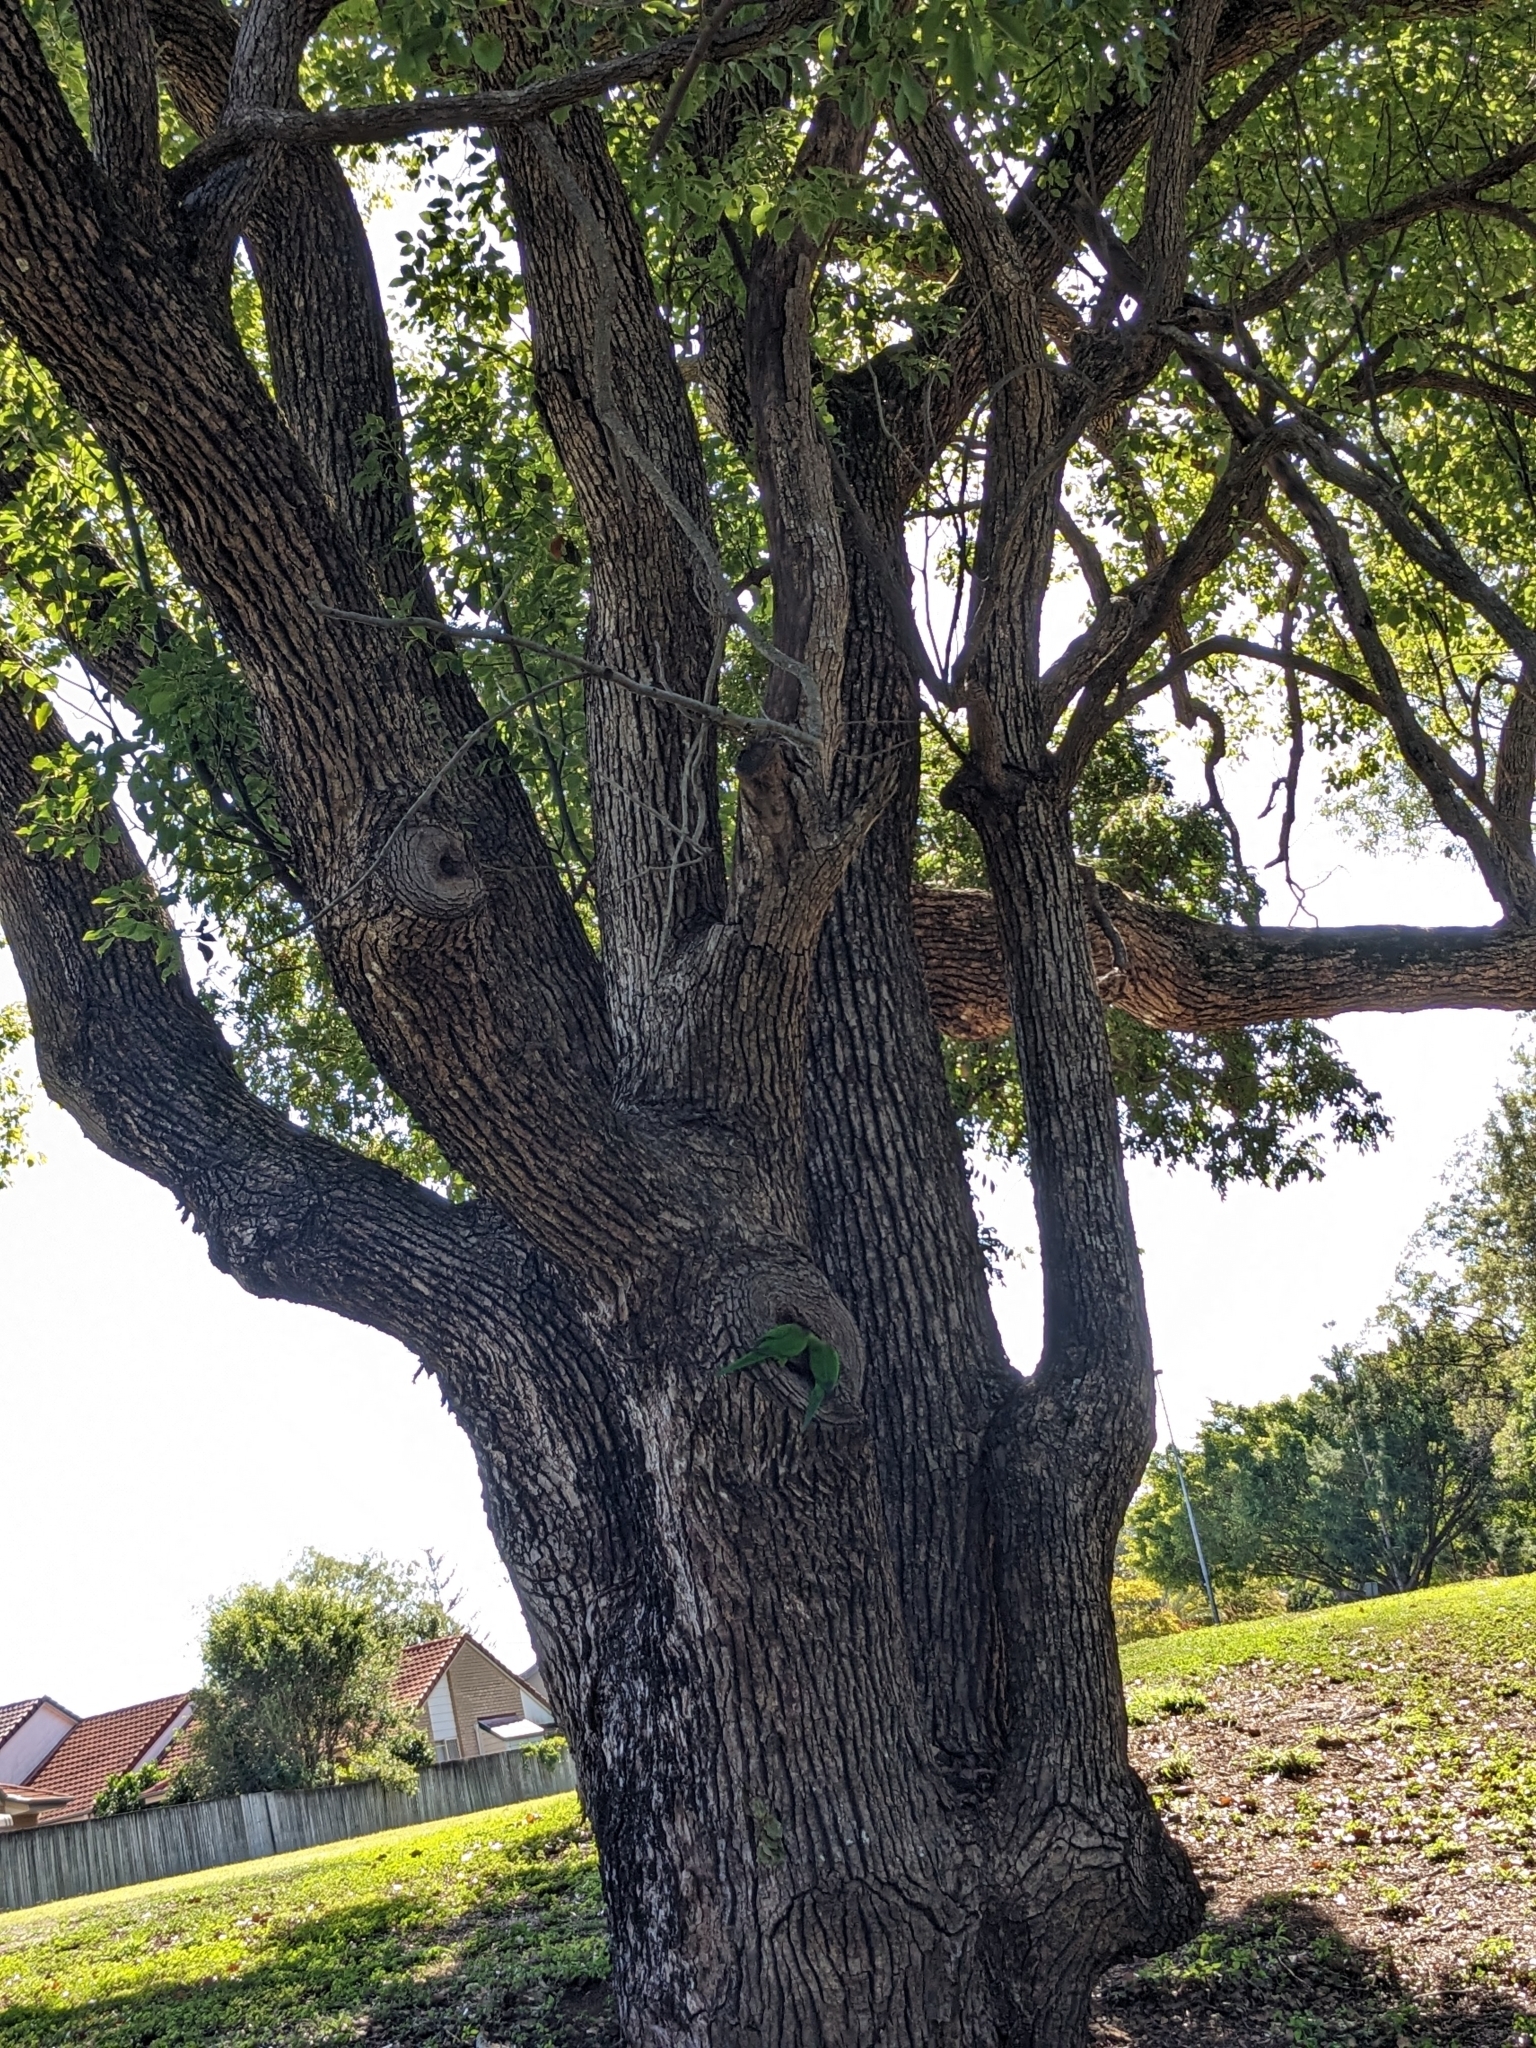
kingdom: Plantae
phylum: Tracheophyta
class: Magnoliopsida
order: Laurales
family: Lauraceae
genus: Cinnamomum
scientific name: Cinnamomum camphora
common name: Camphortree
